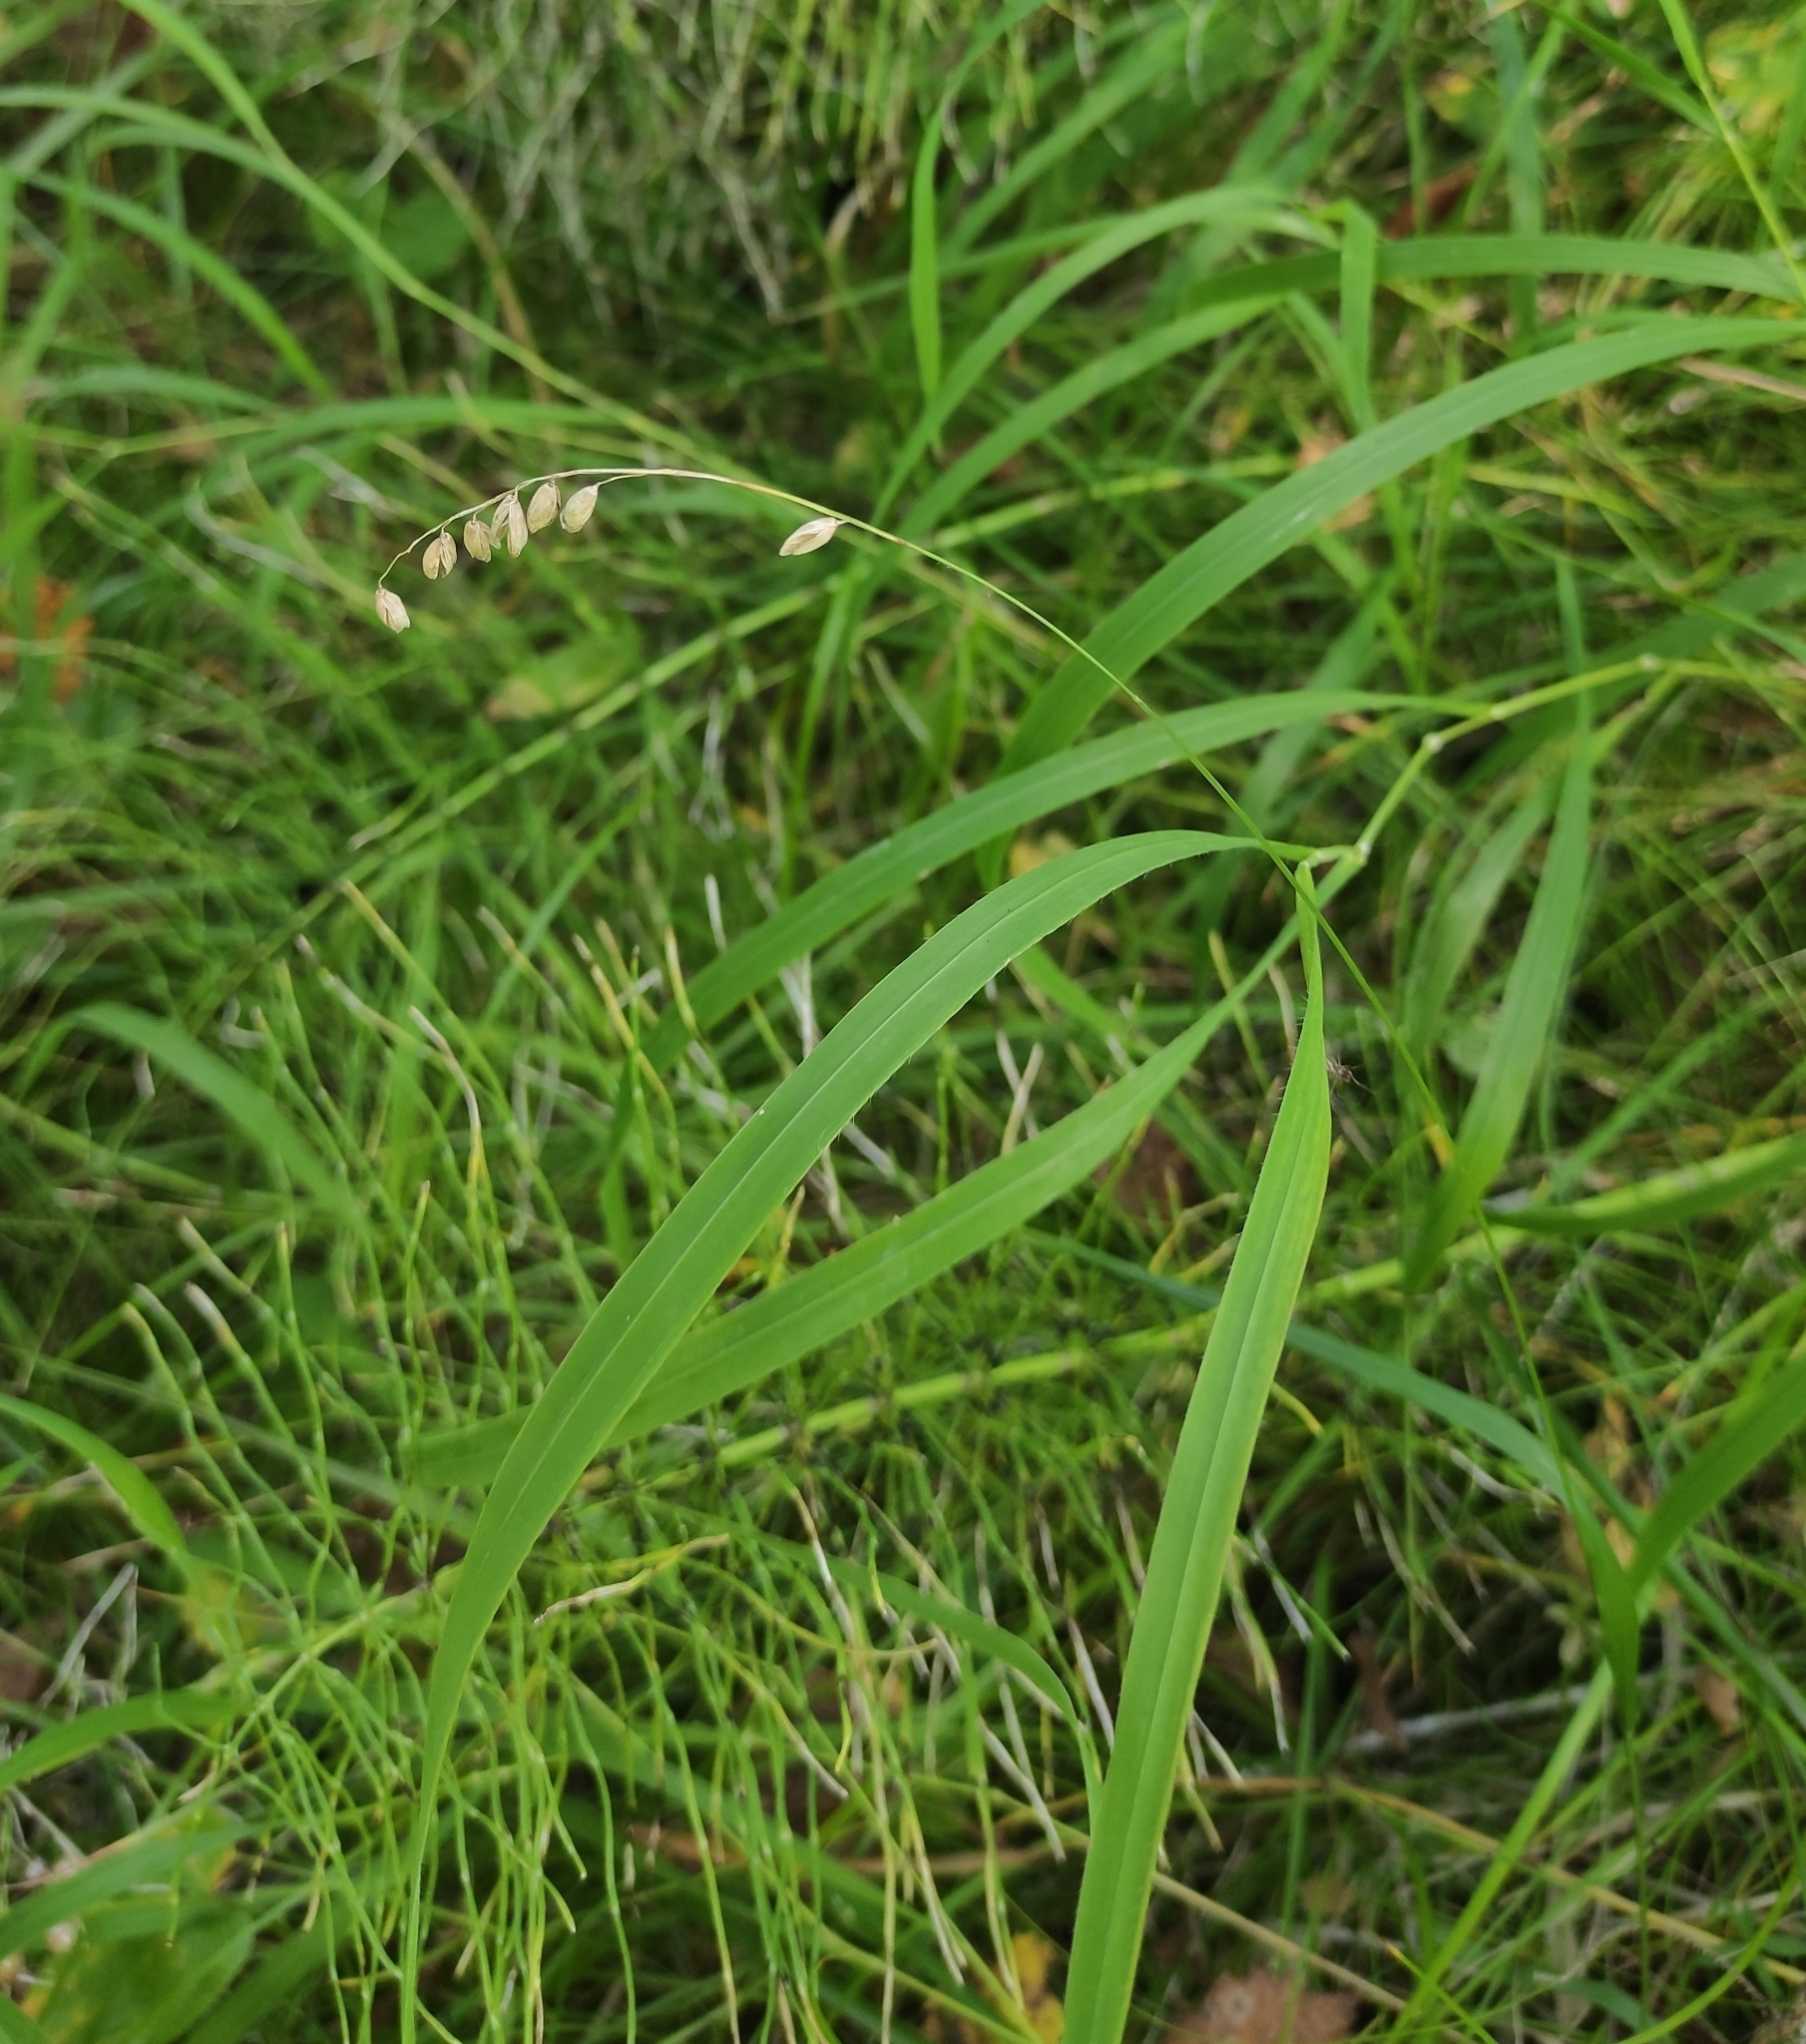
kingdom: Plantae
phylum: Tracheophyta
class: Liliopsida
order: Poales
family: Poaceae
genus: Melica
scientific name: Melica nutans
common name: Mountain melick
